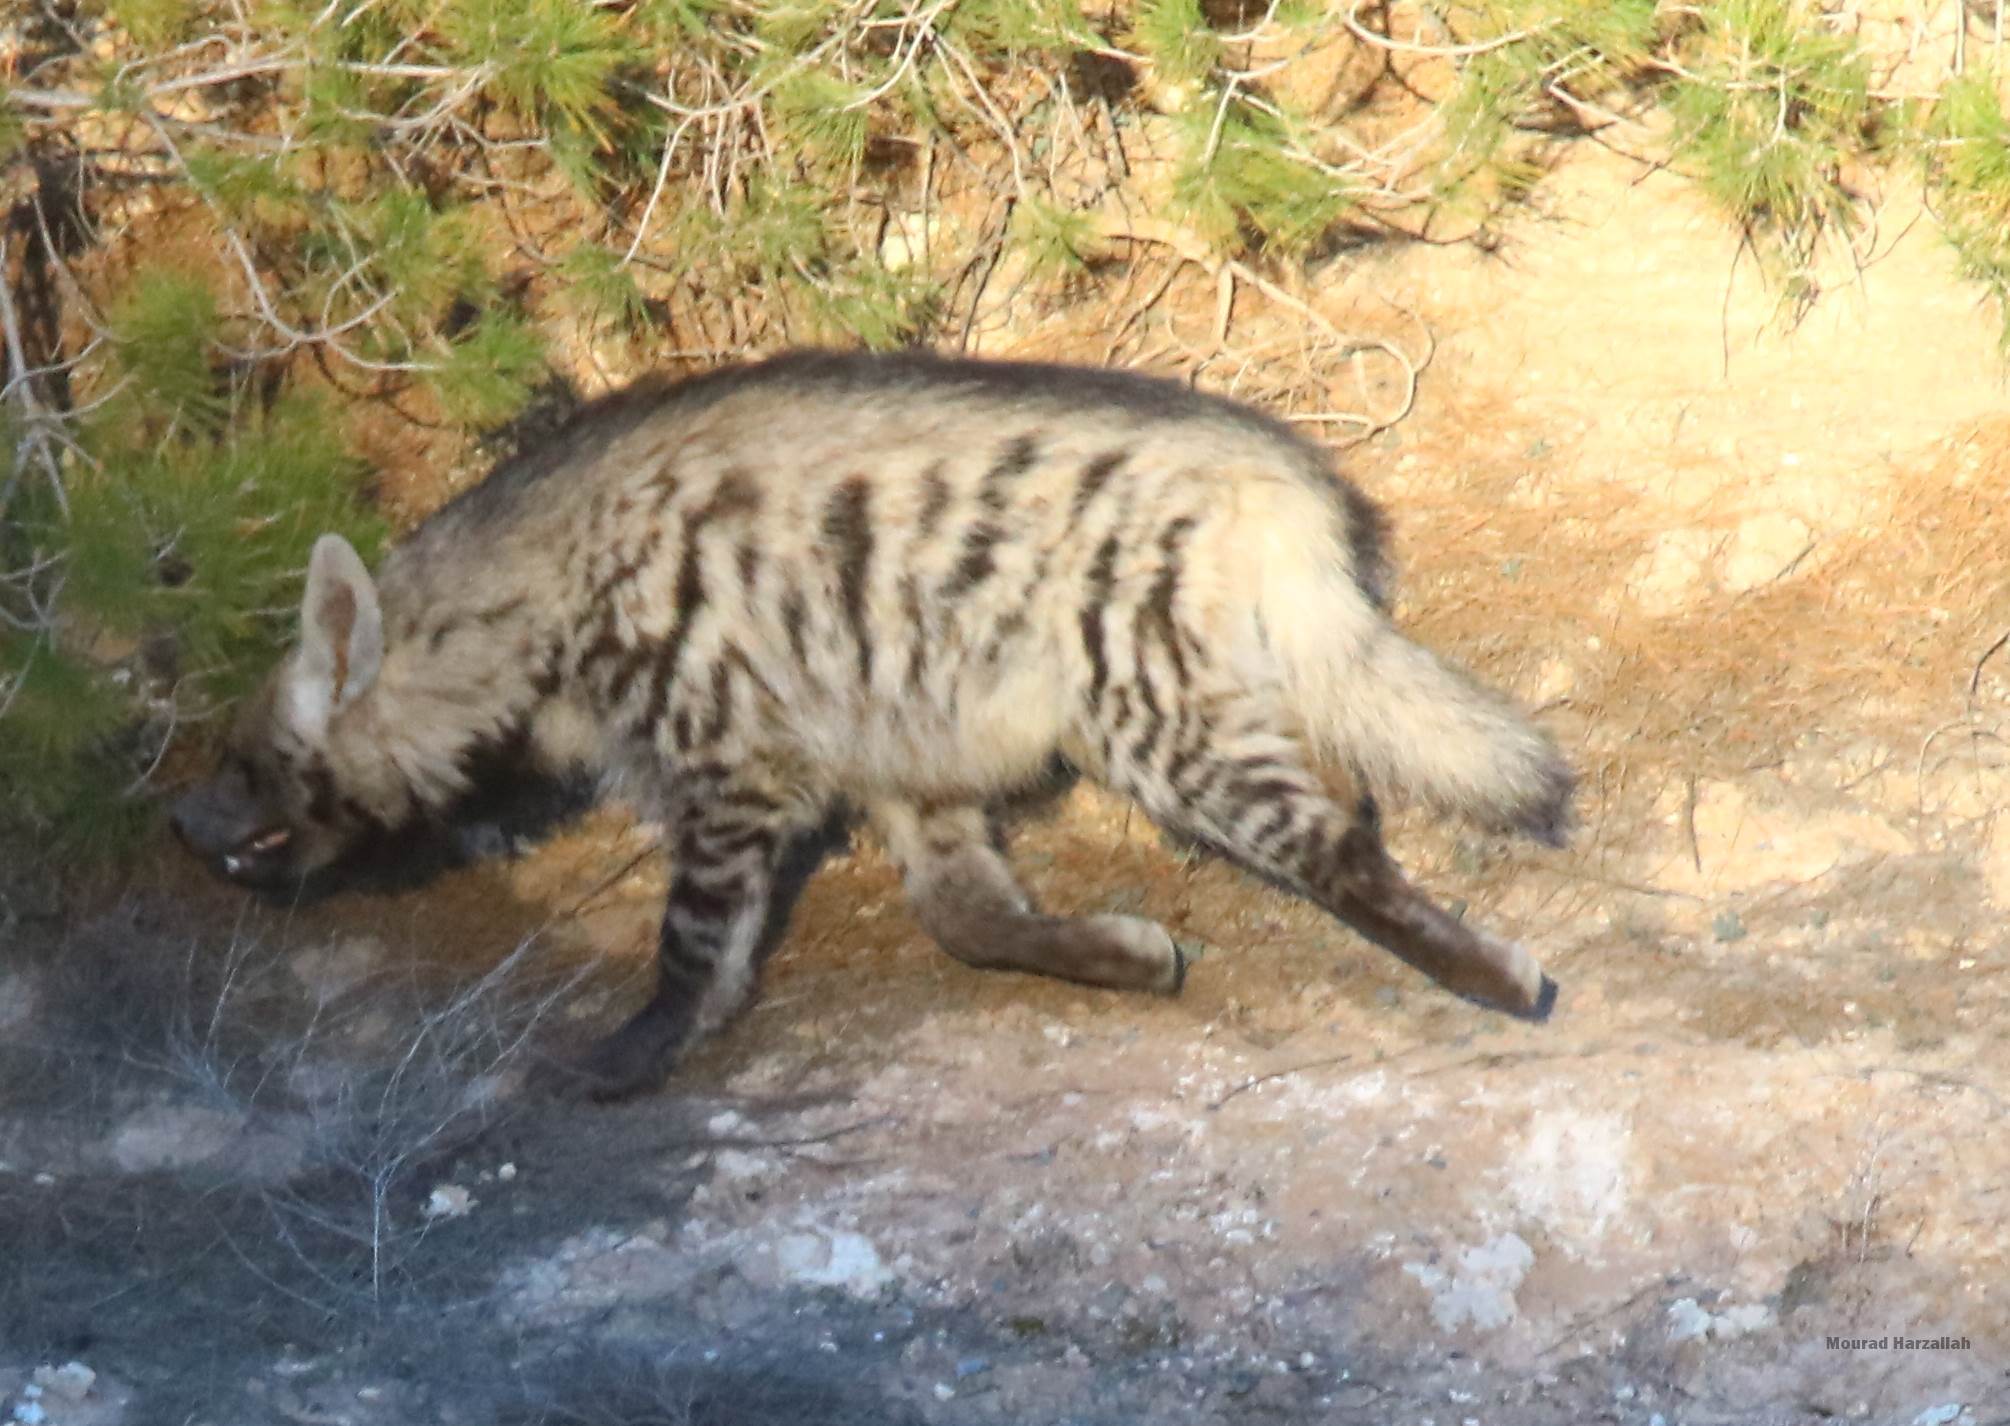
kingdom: Animalia
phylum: Chordata
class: Mammalia
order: Carnivora
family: Hyaenidae
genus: Hyaena
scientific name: Hyaena hyaena
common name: Striped hyaena
